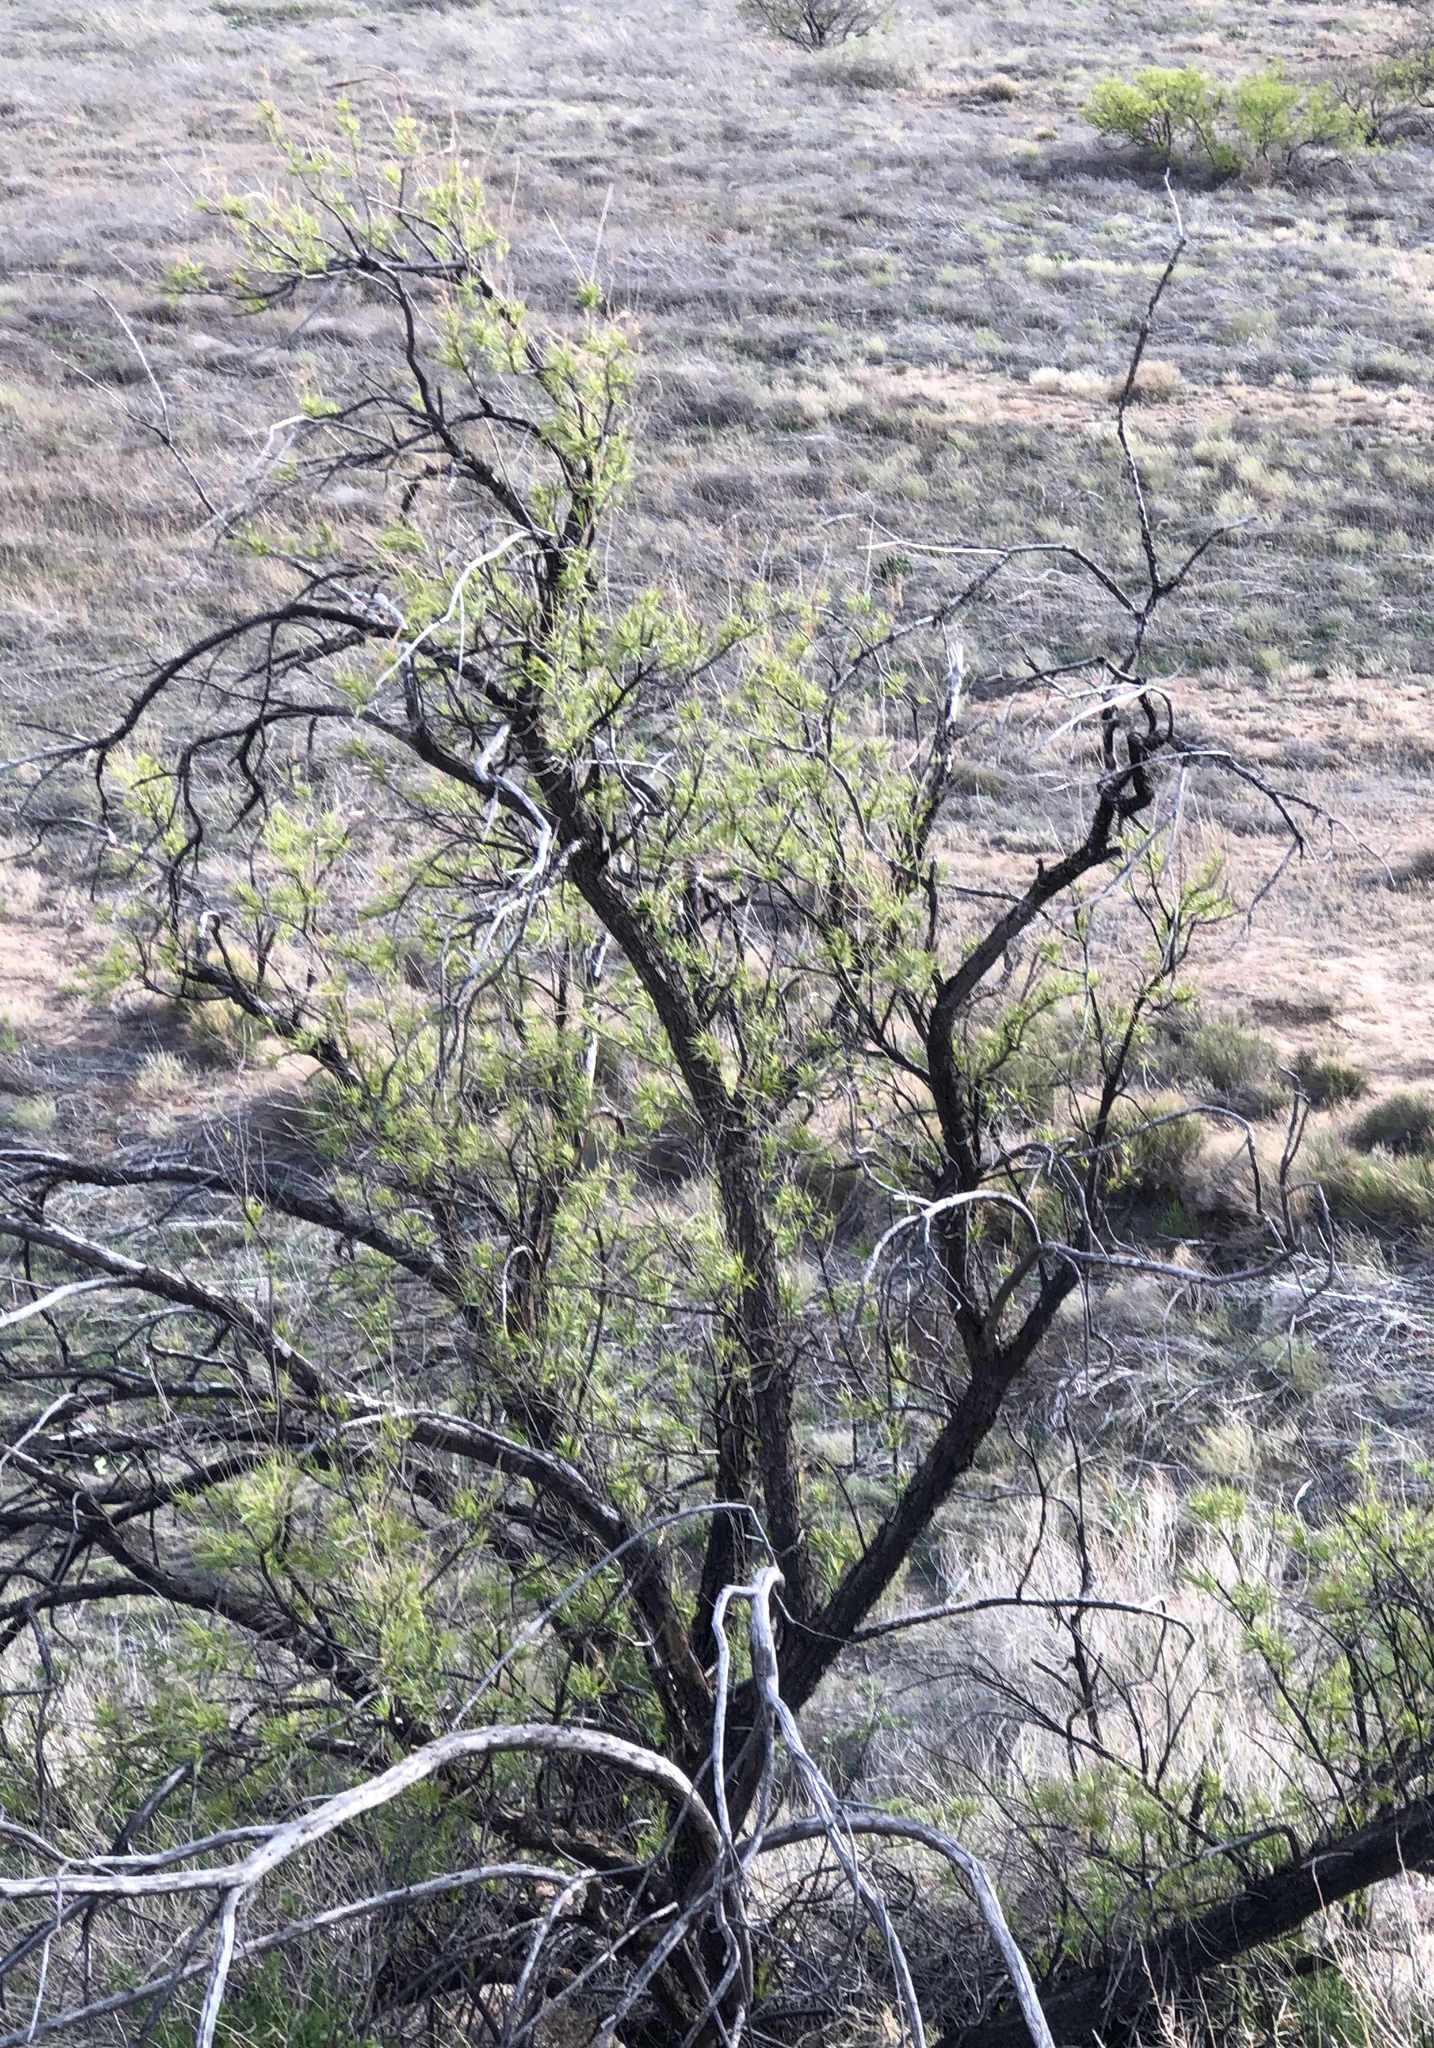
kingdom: Plantae
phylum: Tracheophyta
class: Magnoliopsida
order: Lamiales
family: Bignoniaceae
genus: Chilopsis
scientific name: Chilopsis linearis
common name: Desert-willow
